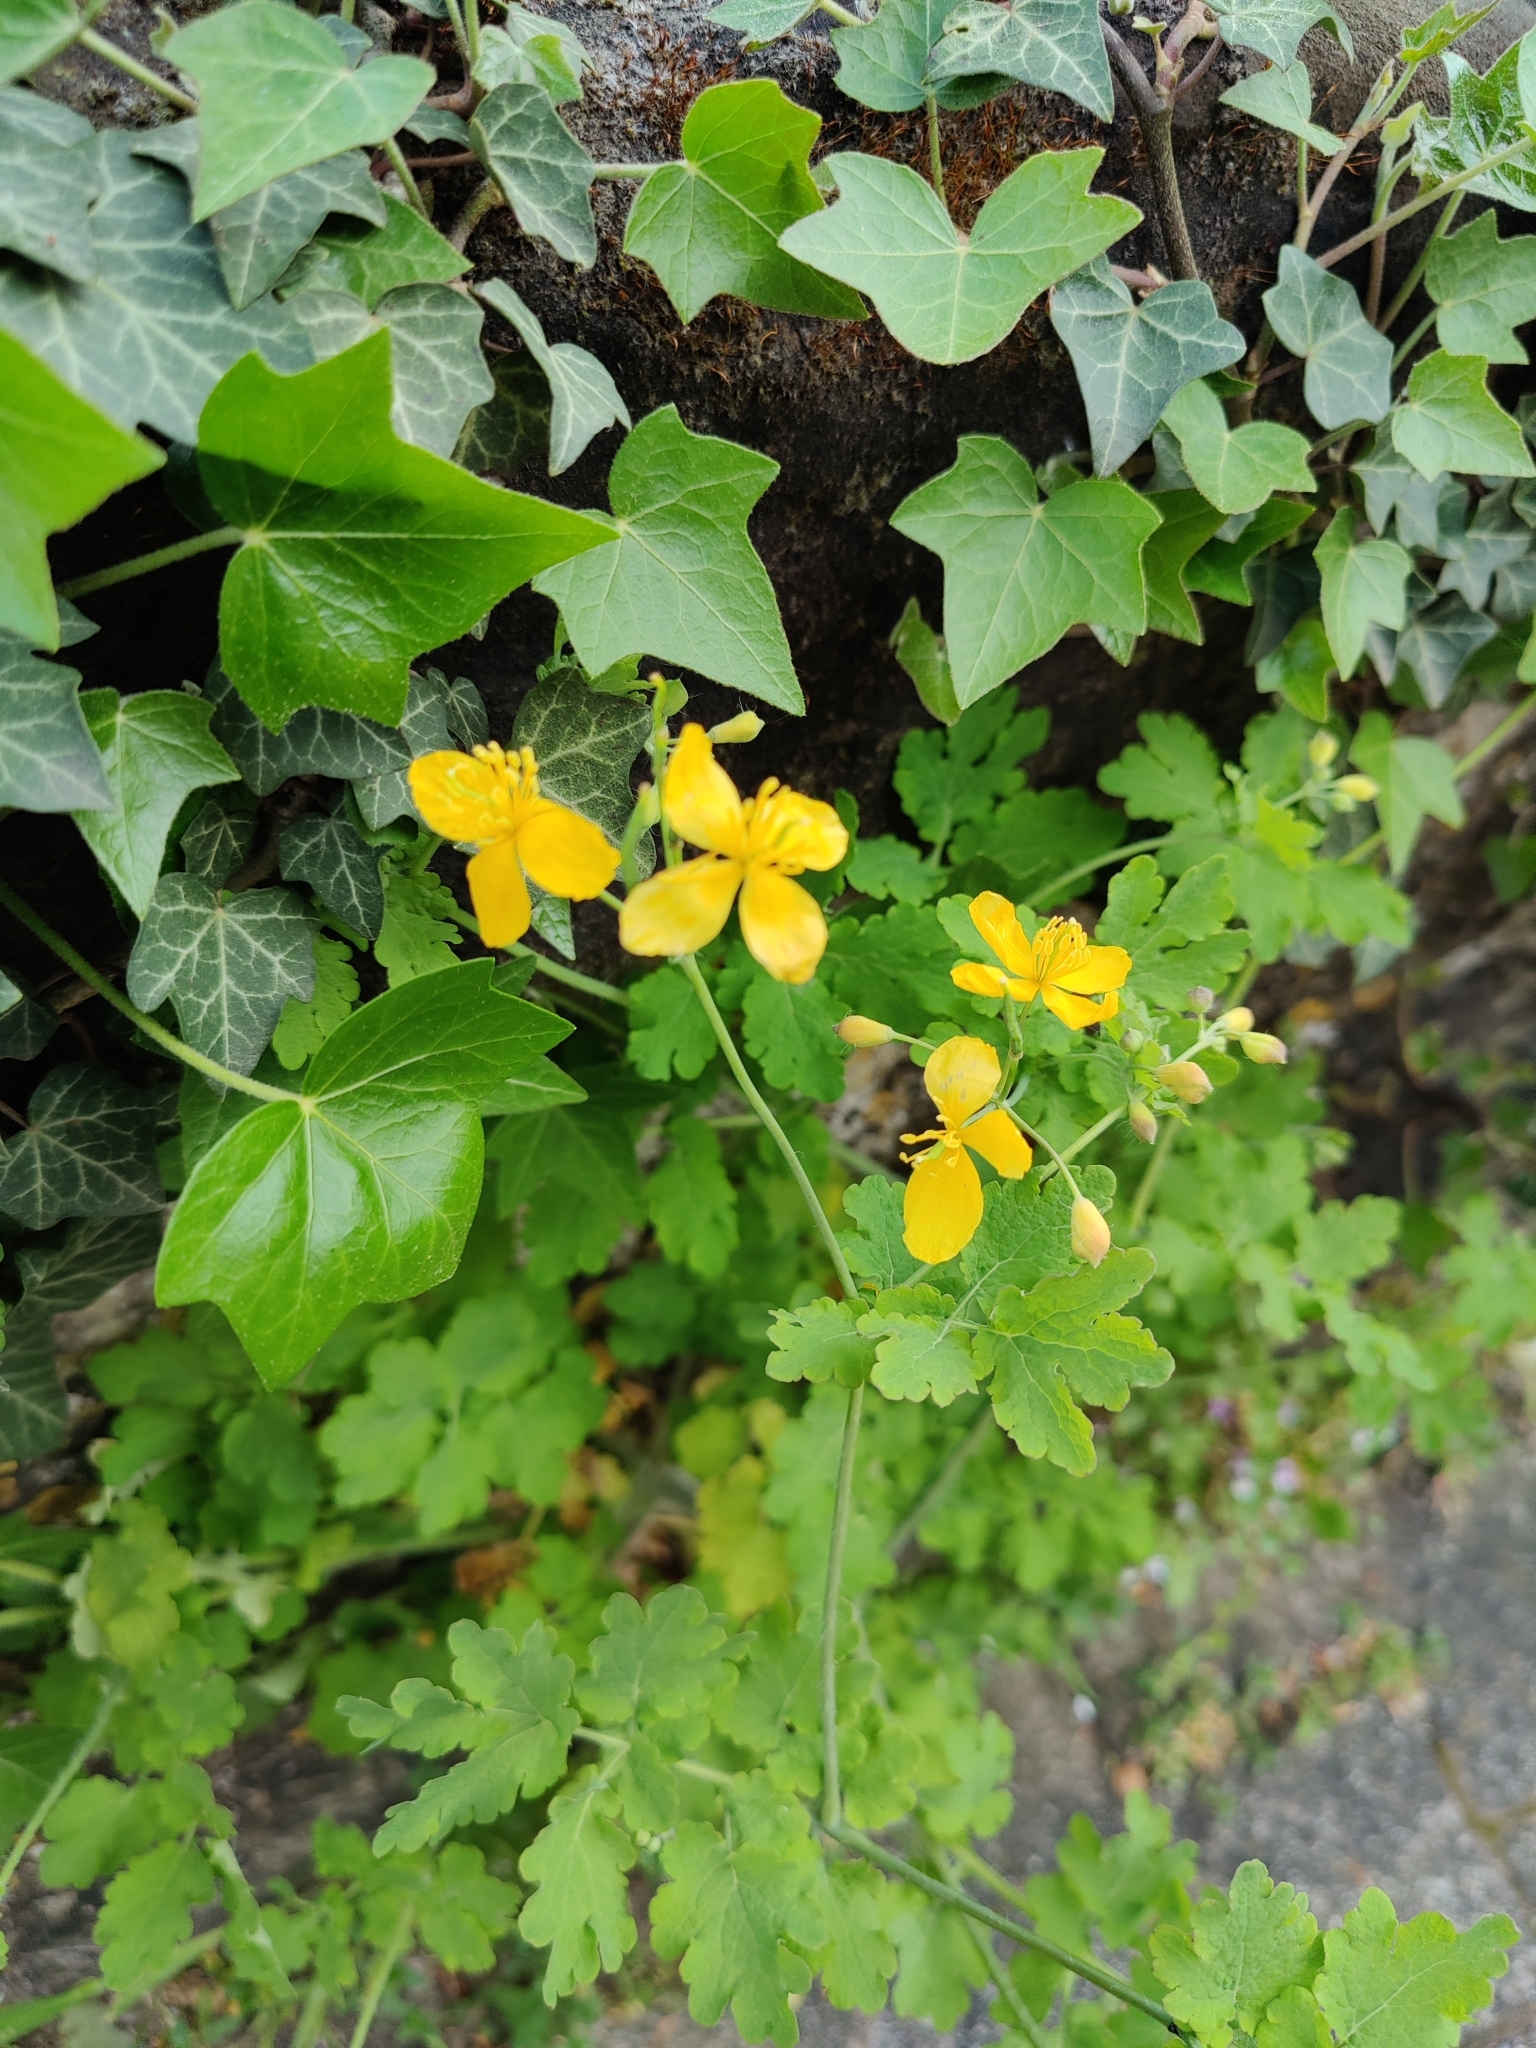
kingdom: Plantae
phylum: Tracheophyta
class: Magnoliopsida
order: Ranunculales
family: Papaveraceae
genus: Chelidonium
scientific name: Chelidonium majus
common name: Greater celandine
